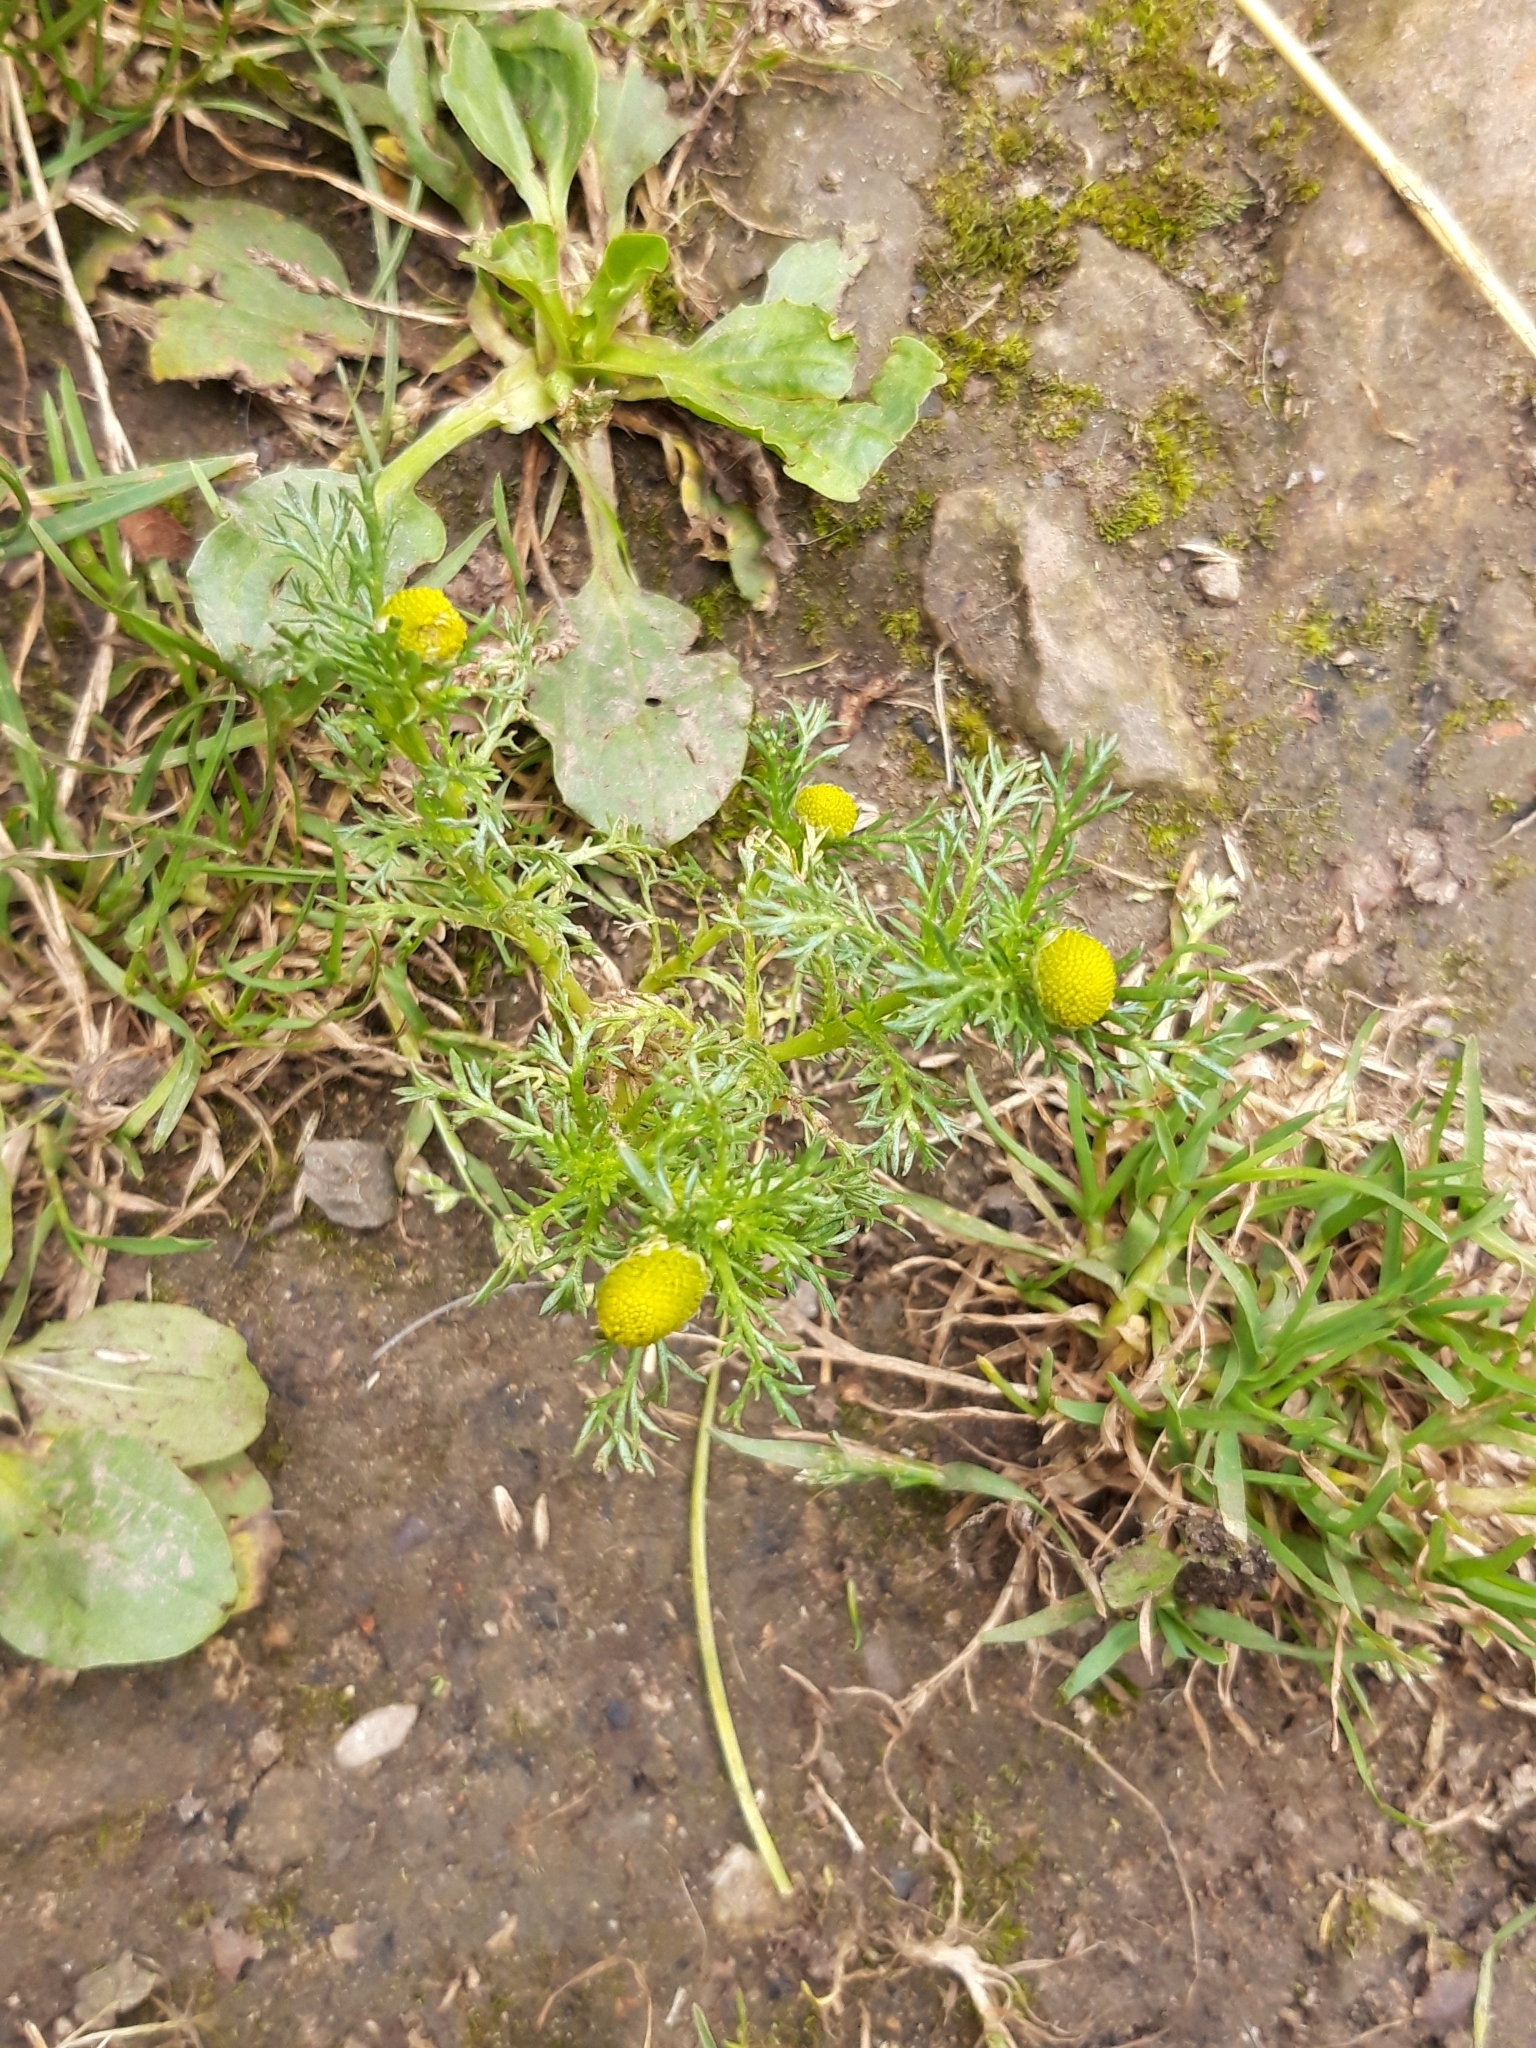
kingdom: Plantae
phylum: Tracheophyta
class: Magnoliopsida
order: Asterales
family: Asteraceae
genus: Matricaria
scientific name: Matricaria discoidea
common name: Disc mayweed
